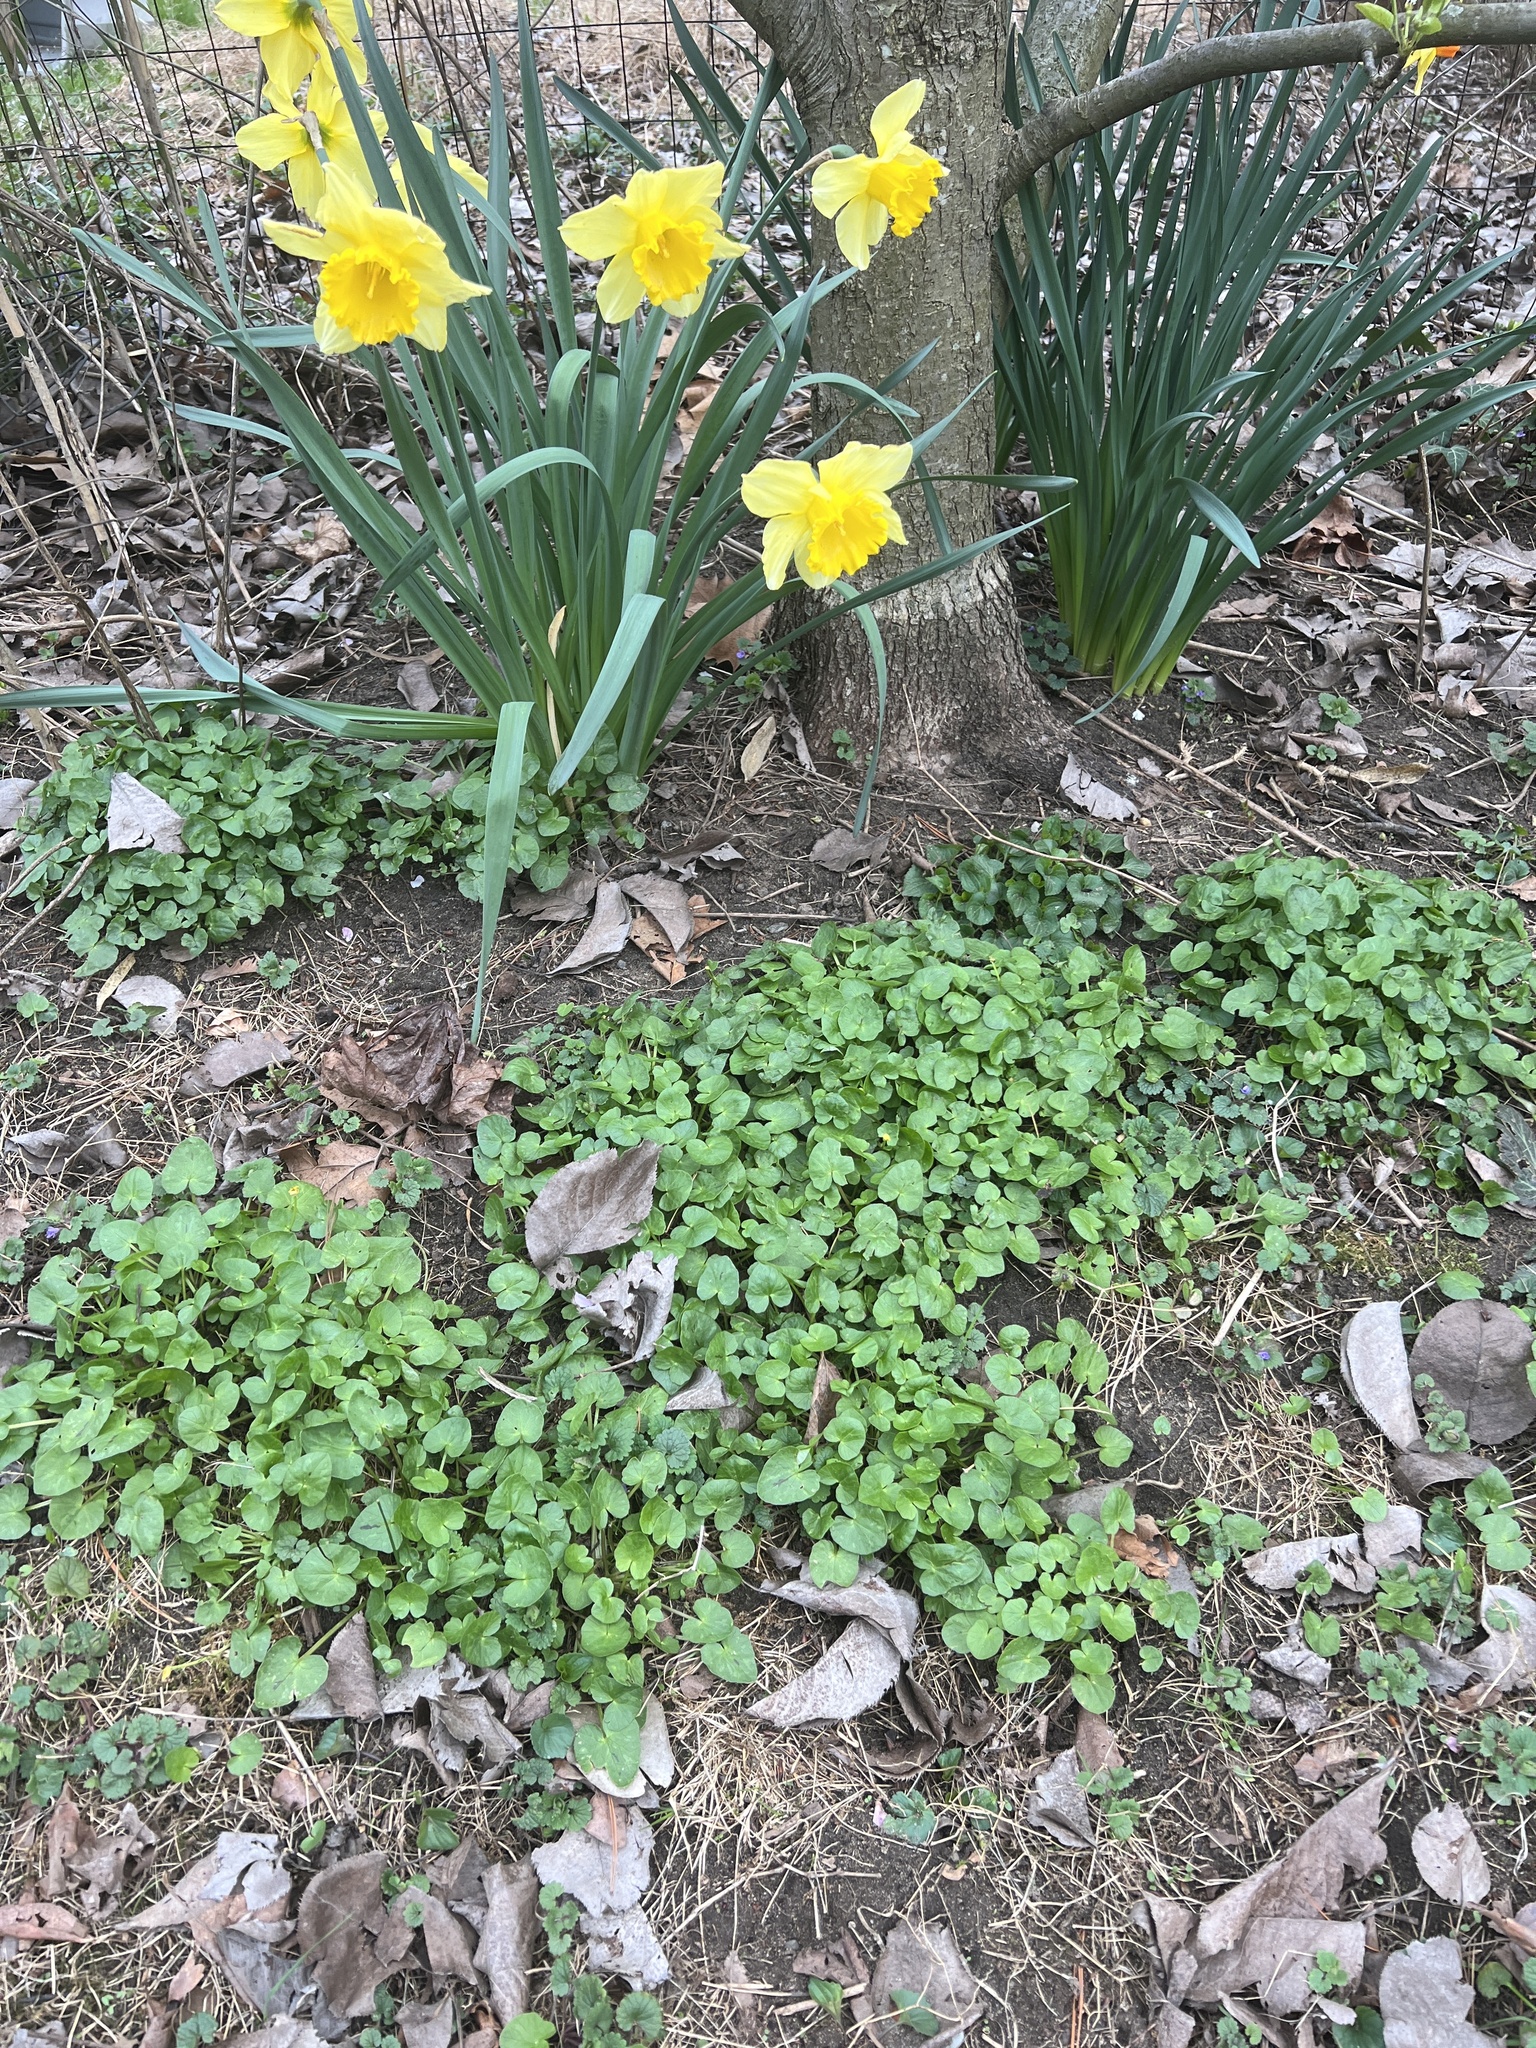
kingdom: Plantae
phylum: Tracheophyta
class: Magnoliopsida
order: Ranunculales
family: Ranunculaceae
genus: Ficaria
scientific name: Ficaria verna
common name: Lesser celandine
